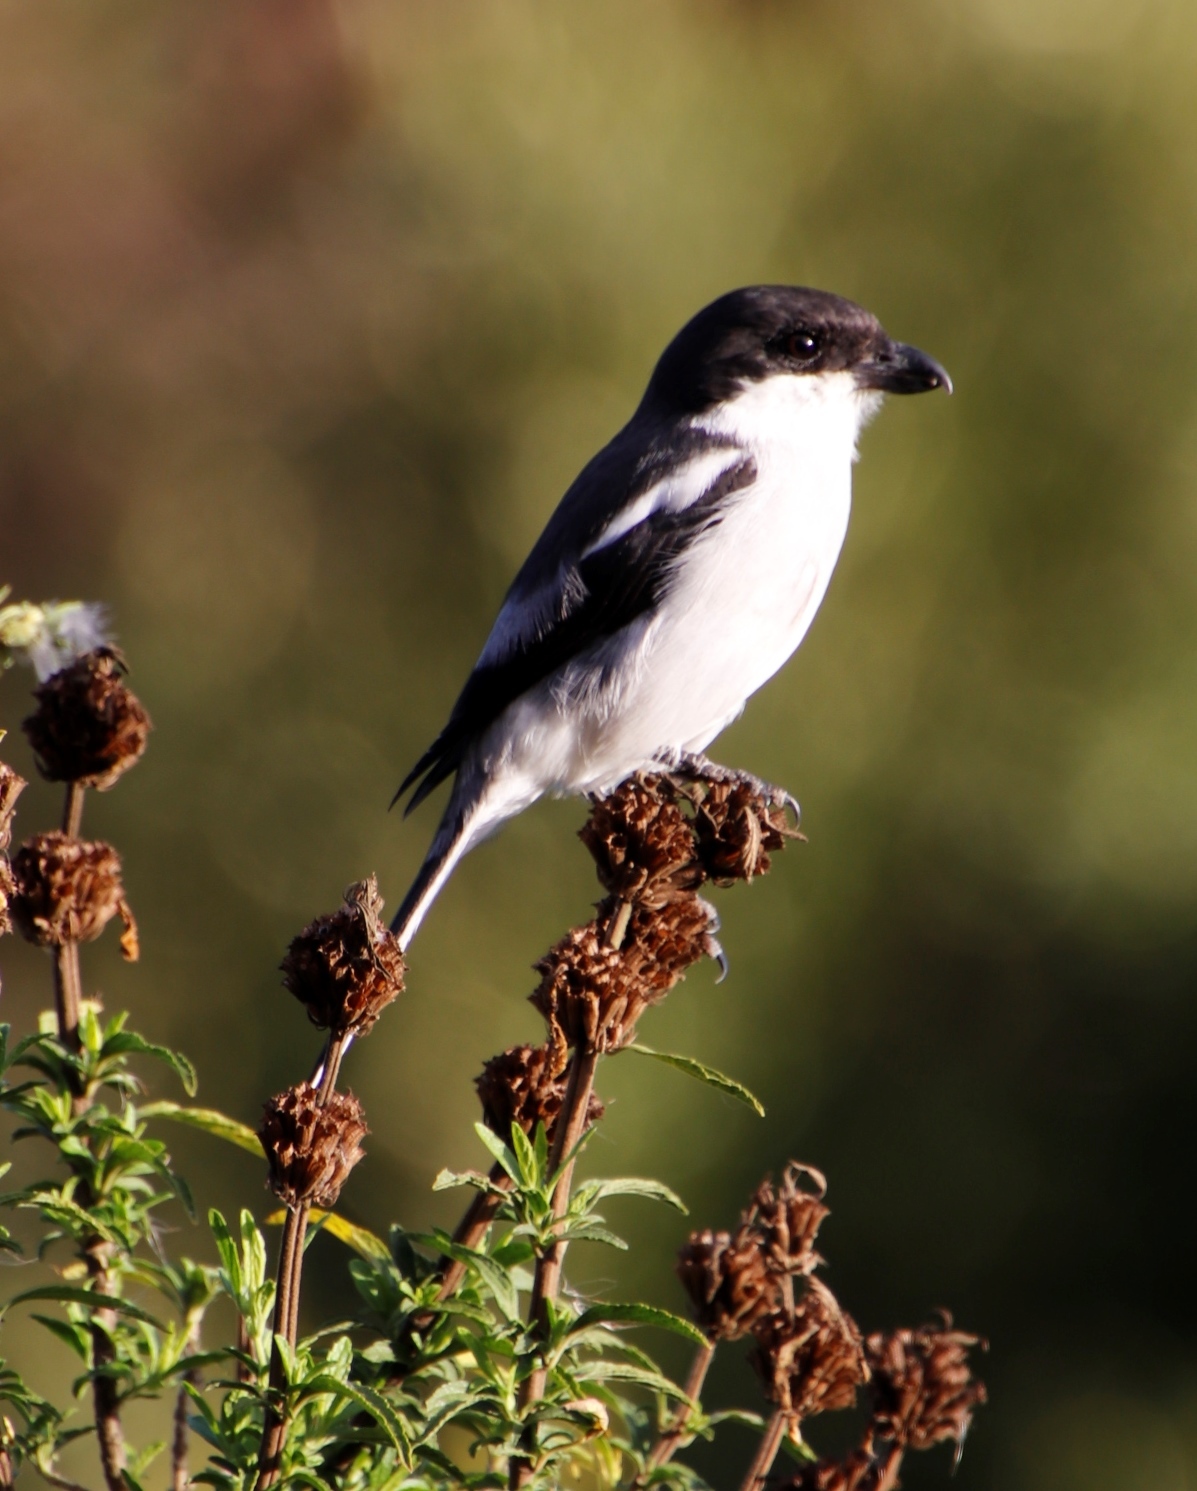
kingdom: Animalia
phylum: Chordata
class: Aves
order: Passeriformes
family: Laniidae
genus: Lanius
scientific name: Lanius collaris
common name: Southern fiscal
